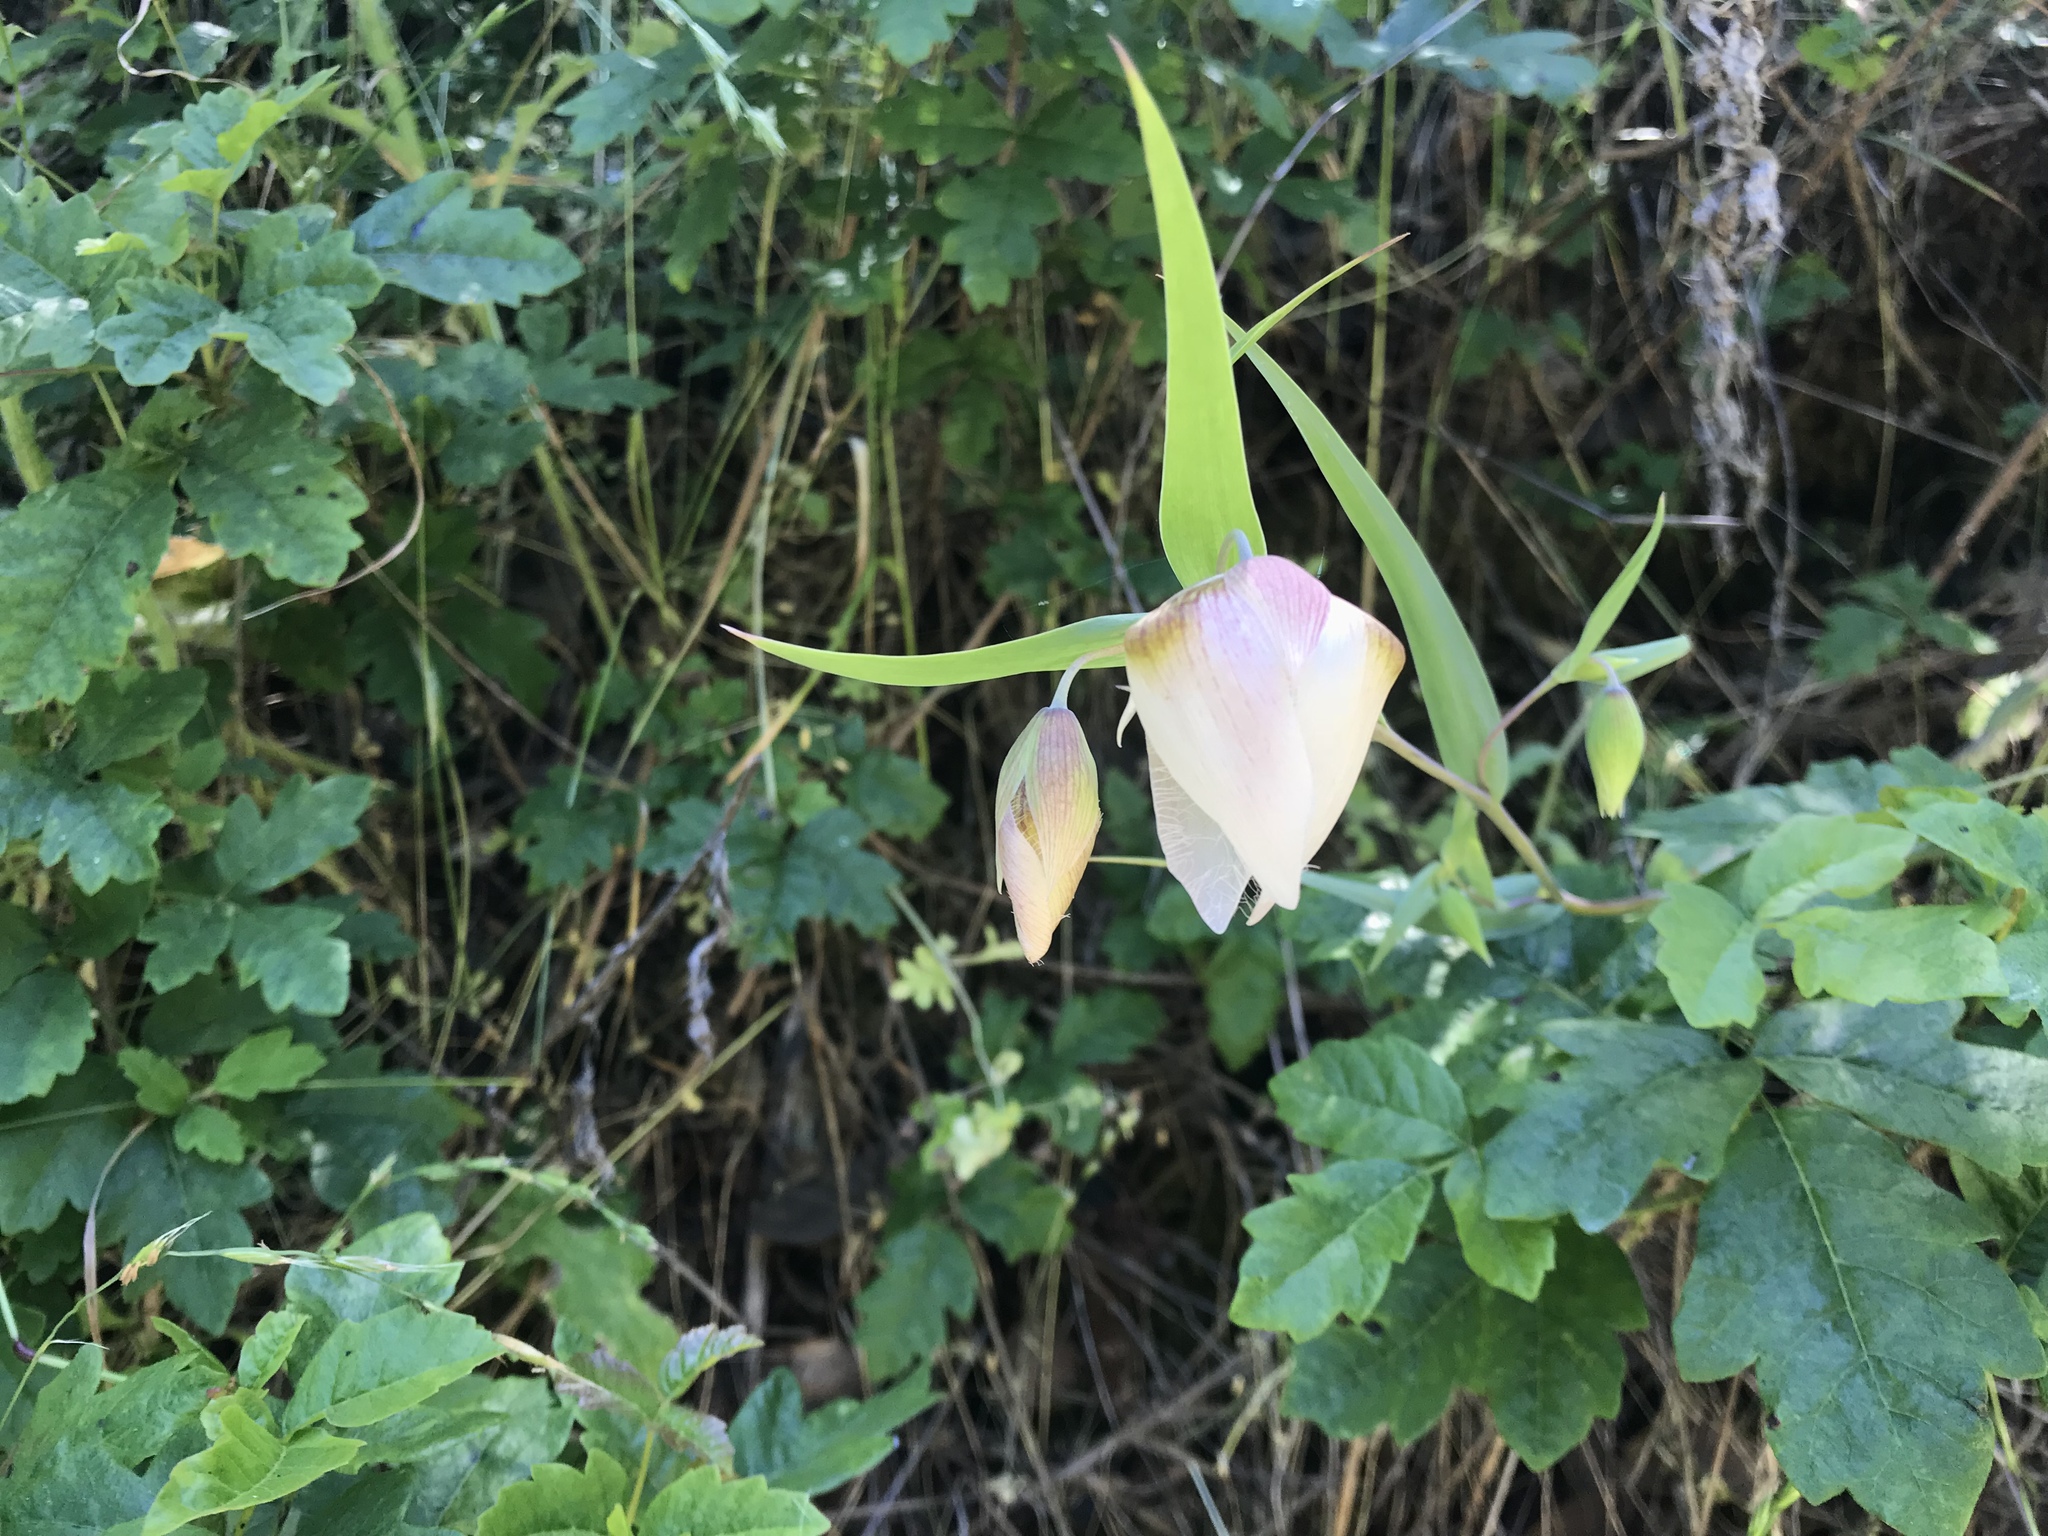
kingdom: Plantae
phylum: Tracheophyta
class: Liliopsida
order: Liliales
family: Liliaceae
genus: Calochortus
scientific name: Calochortus albus
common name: Fairy-lantern
